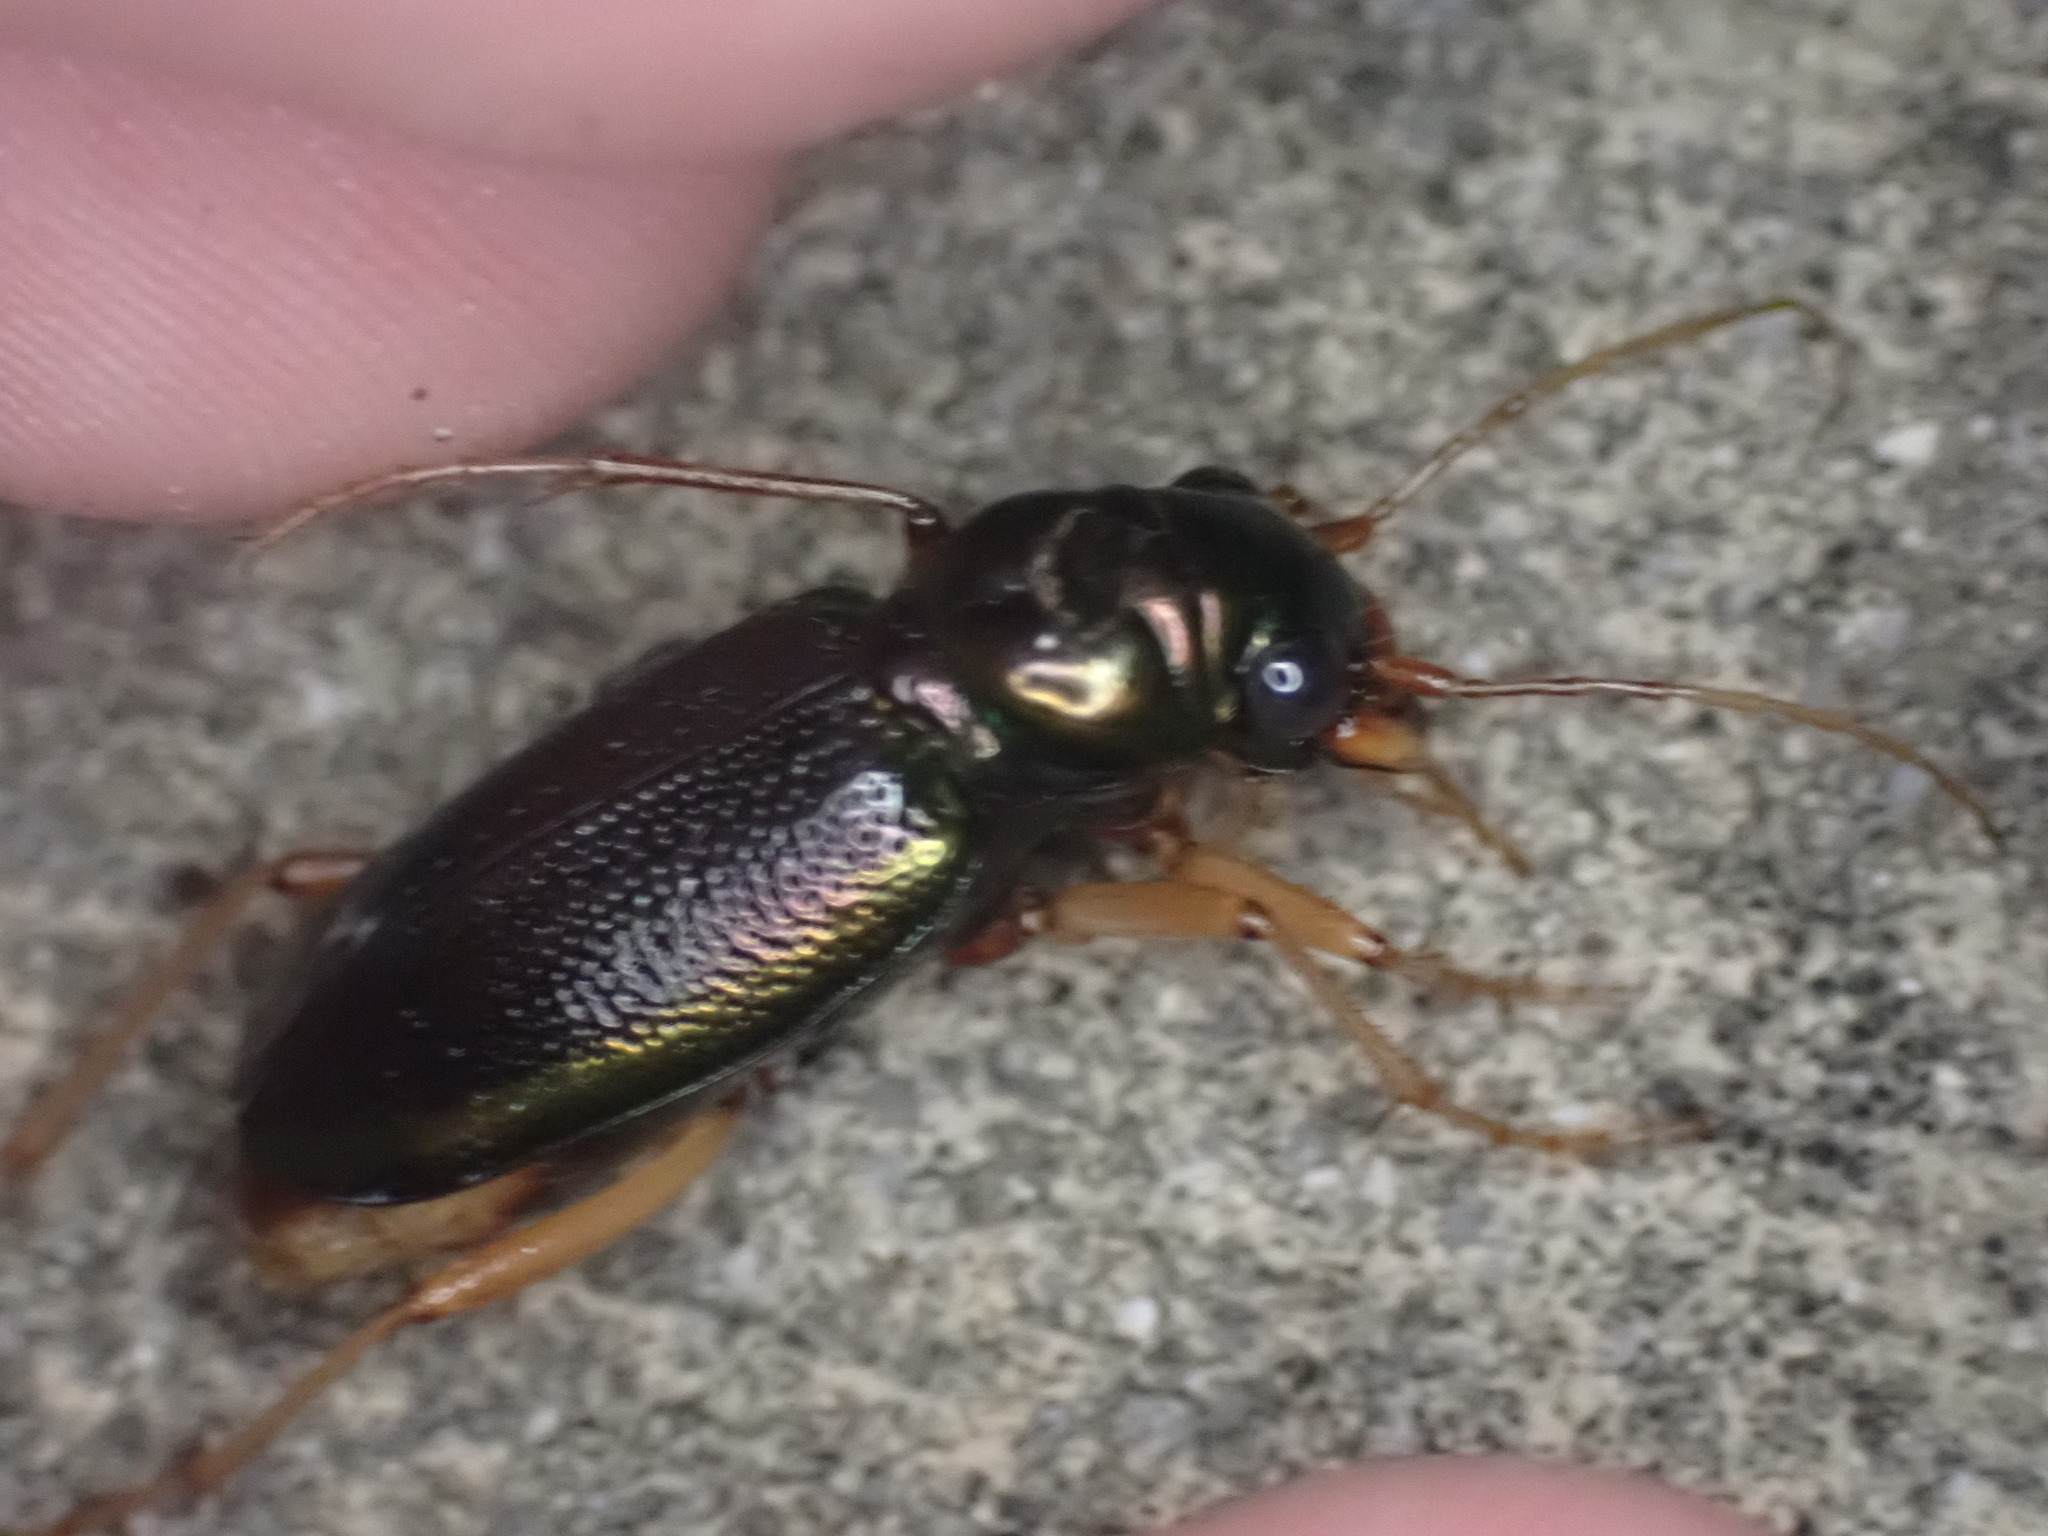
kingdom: Animalia
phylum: Arthropoda
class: Insecta
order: Coleoptera
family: Carabidae
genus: Tetracha
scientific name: Tetracha virginica
